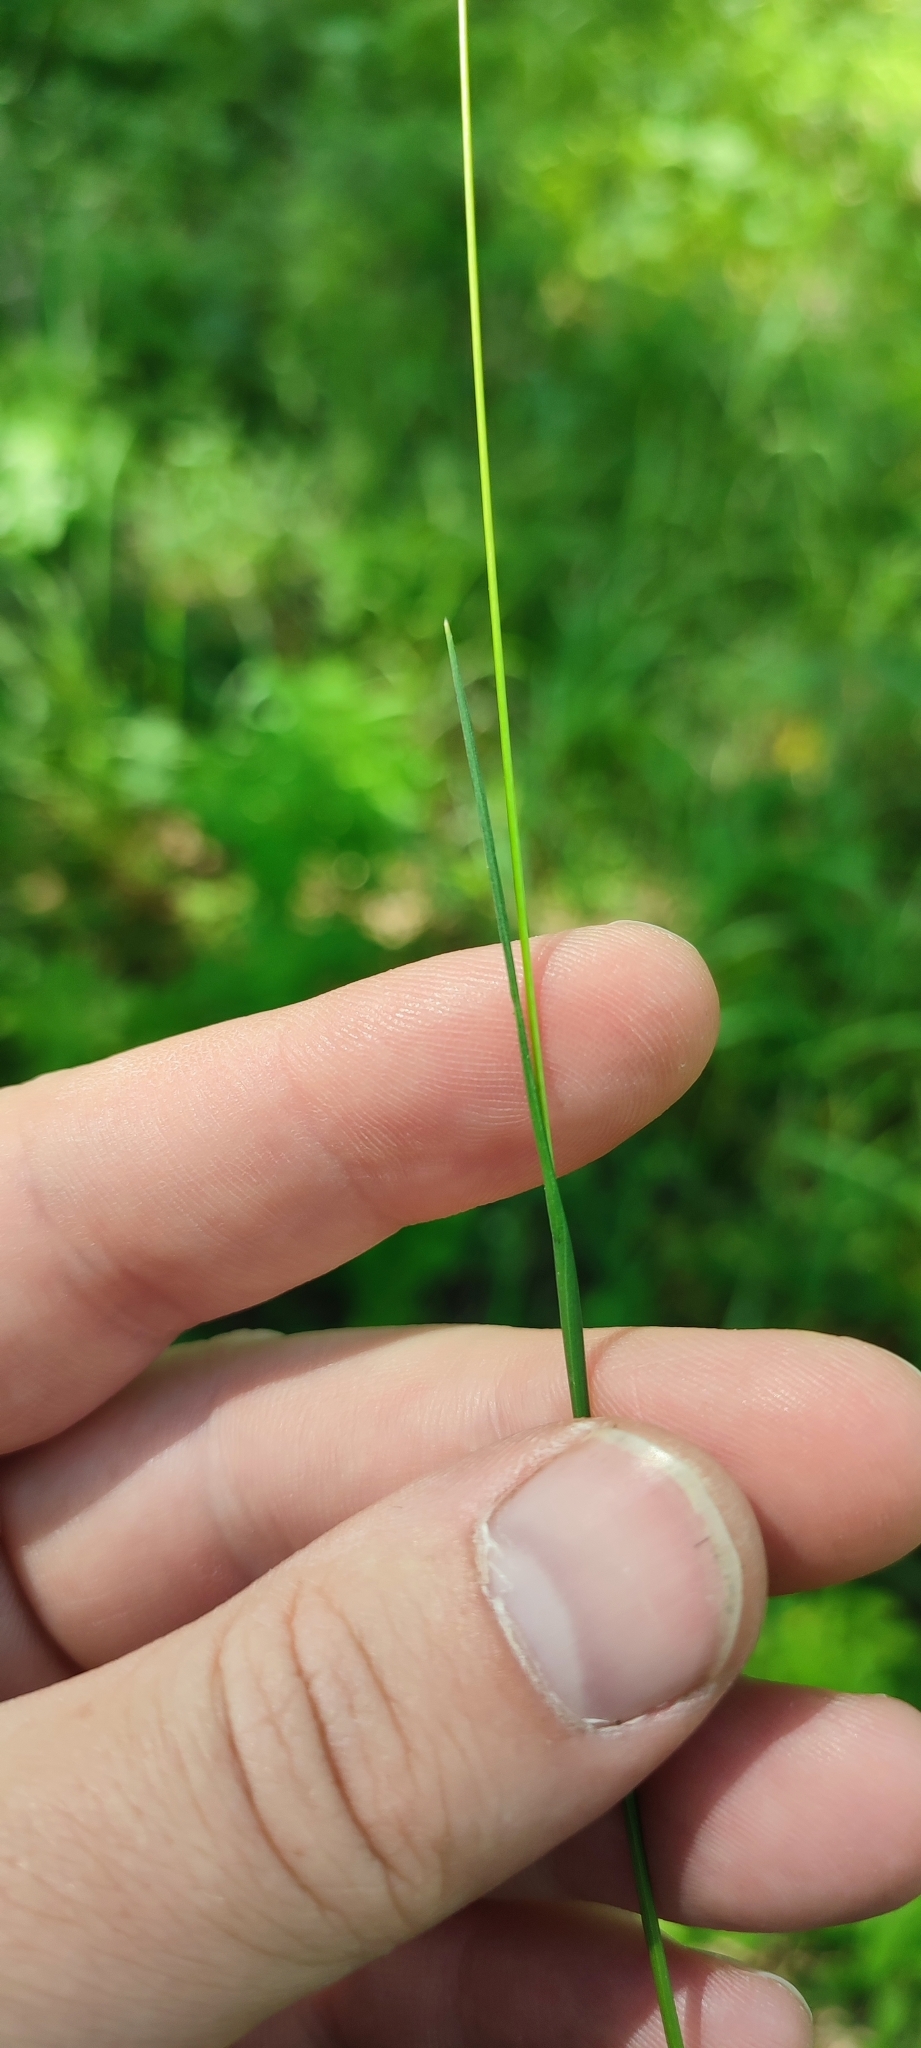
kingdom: Plantae
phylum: Tracheophyta
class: Liliopsida
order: Poales
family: Poaceae
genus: Phleum
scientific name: Phleum phleoides
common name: Purple-stem cat's-tail
